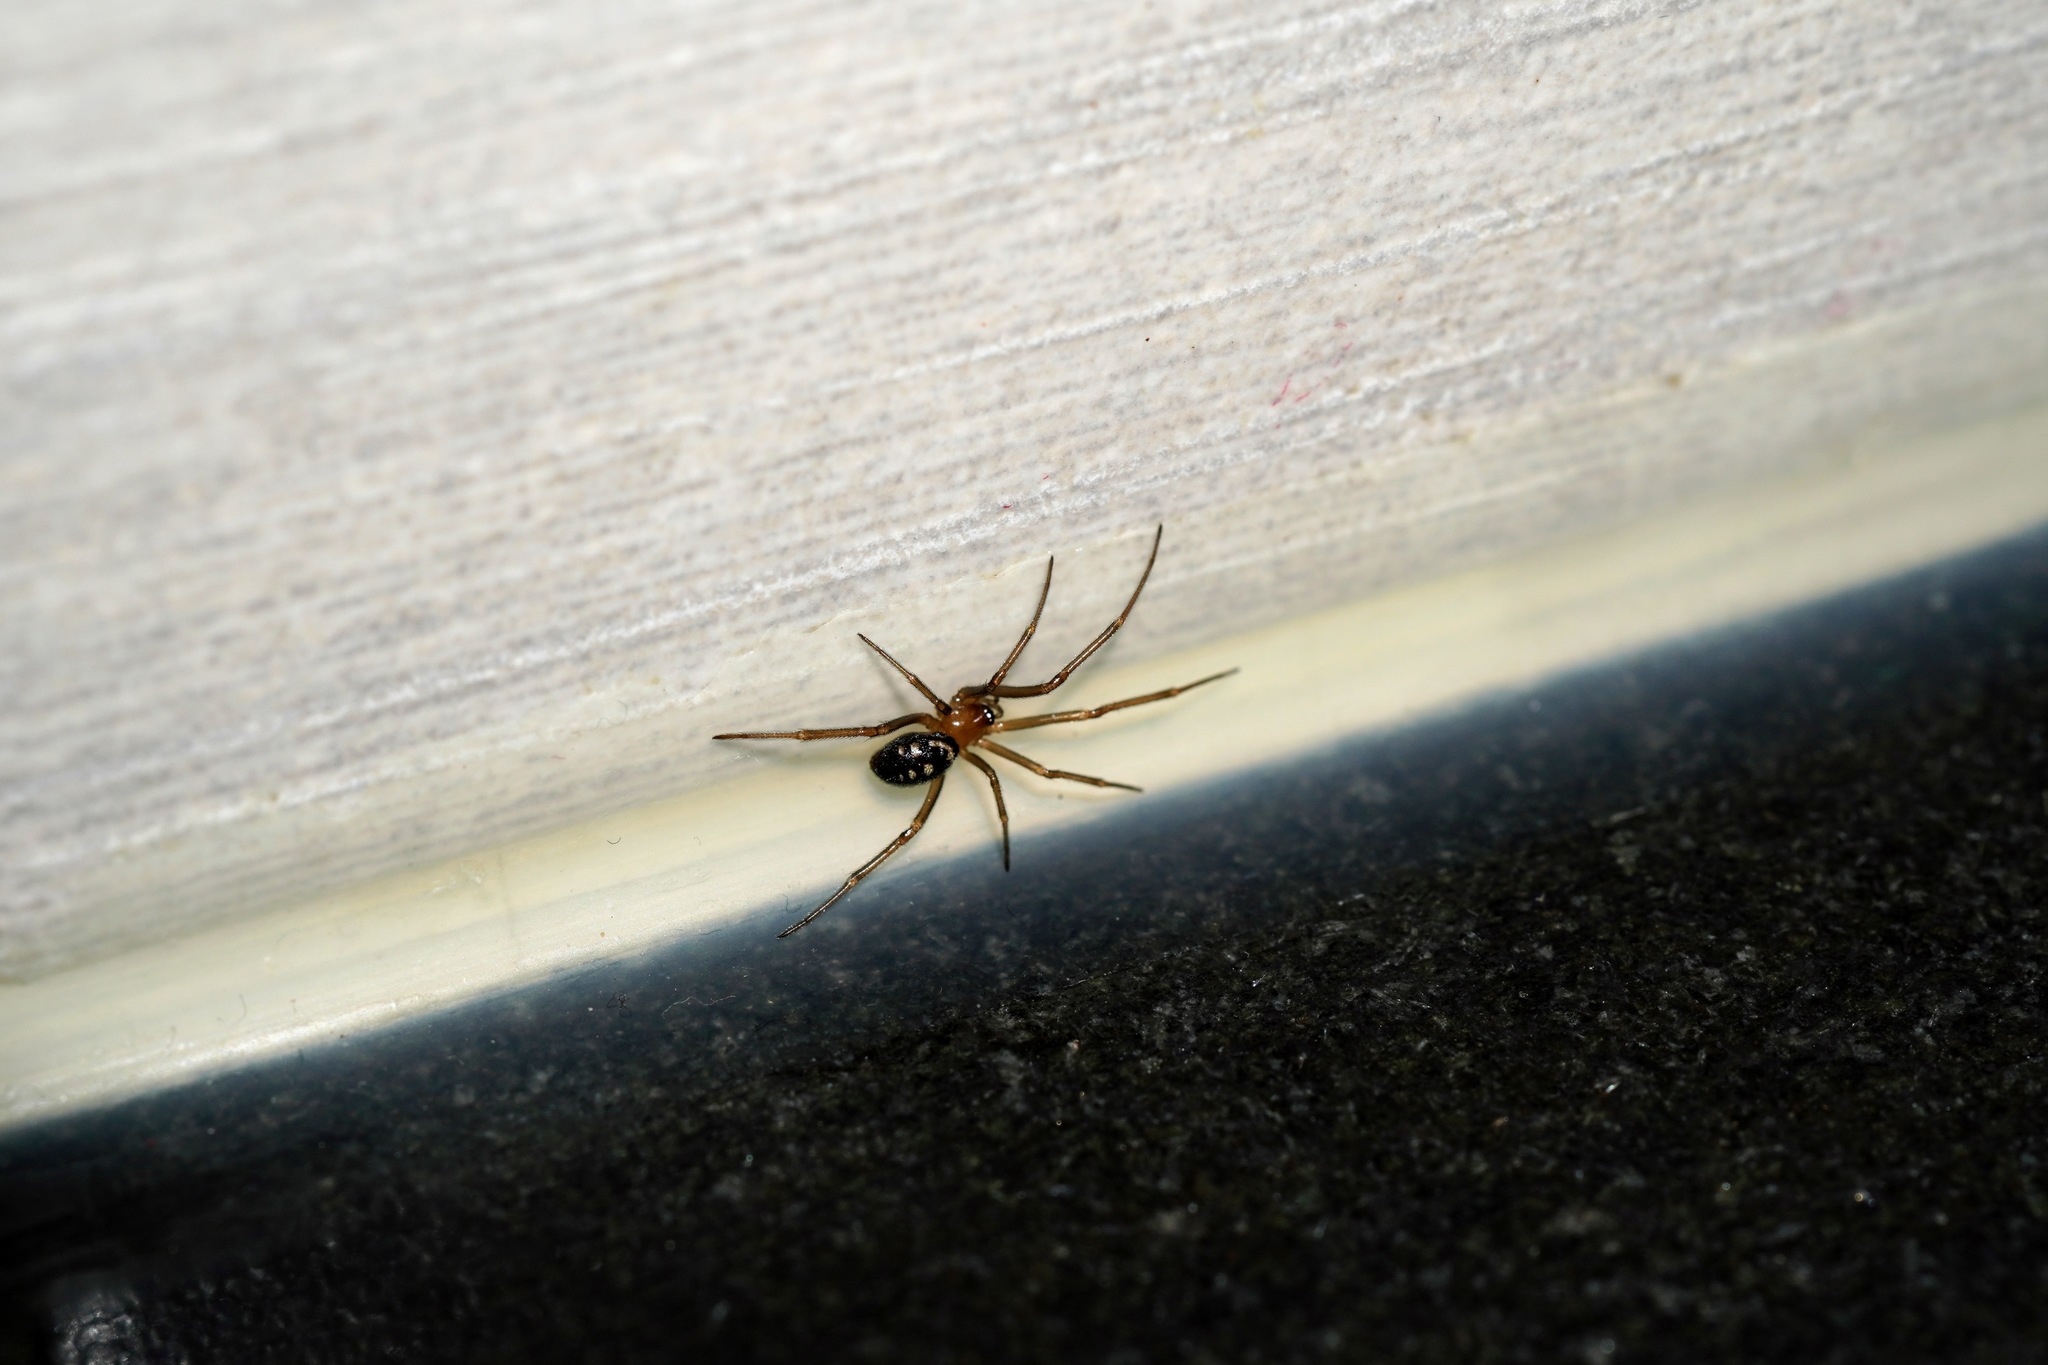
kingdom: Animalia
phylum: Arthropoda
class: Arachnida
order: Araneae
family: Theridiidae
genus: Steatoda
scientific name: Steatoda grossa
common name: False black widow
